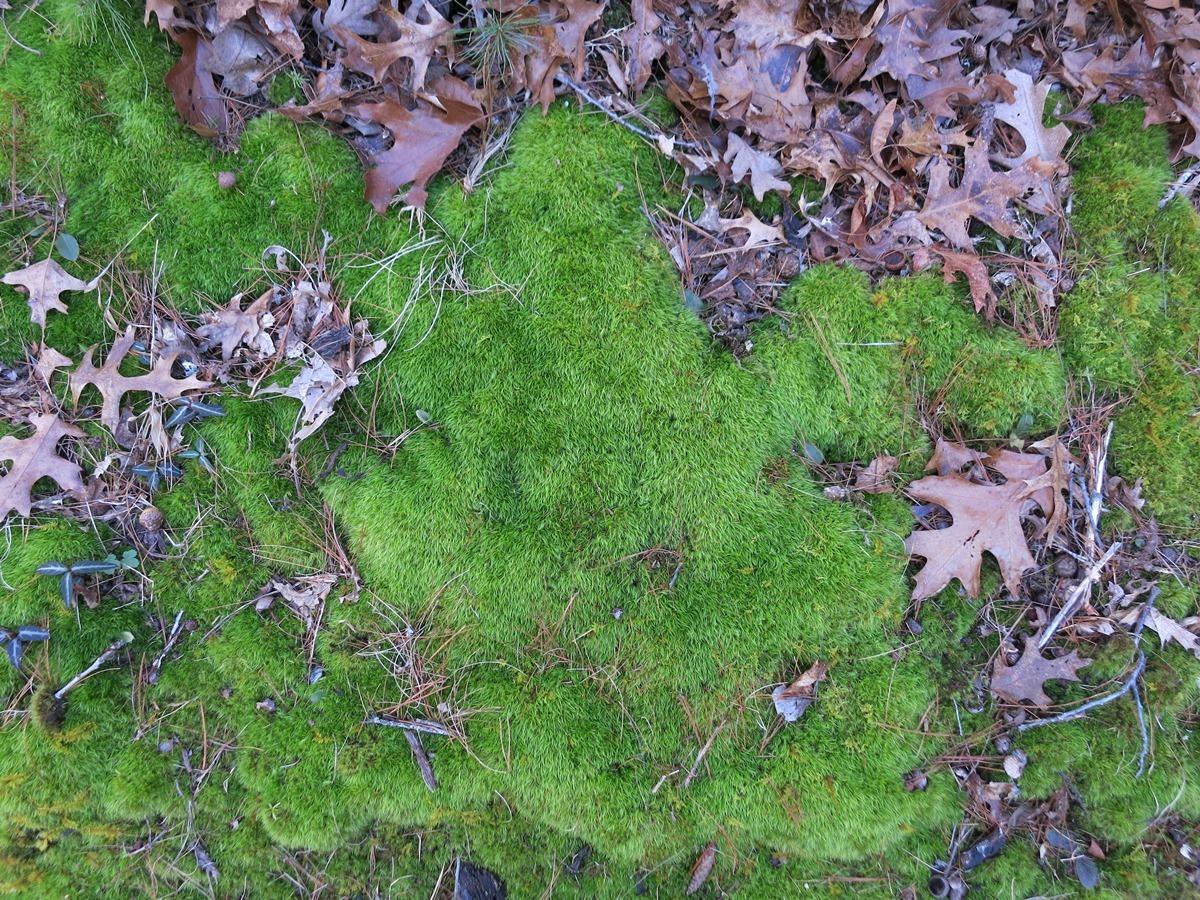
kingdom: Plantae
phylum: Bryophyta
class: Bryopsida
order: Dicranales
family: Dicranaceae
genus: Dicranum
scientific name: Dicranum scoparium
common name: Broom fork-moss
